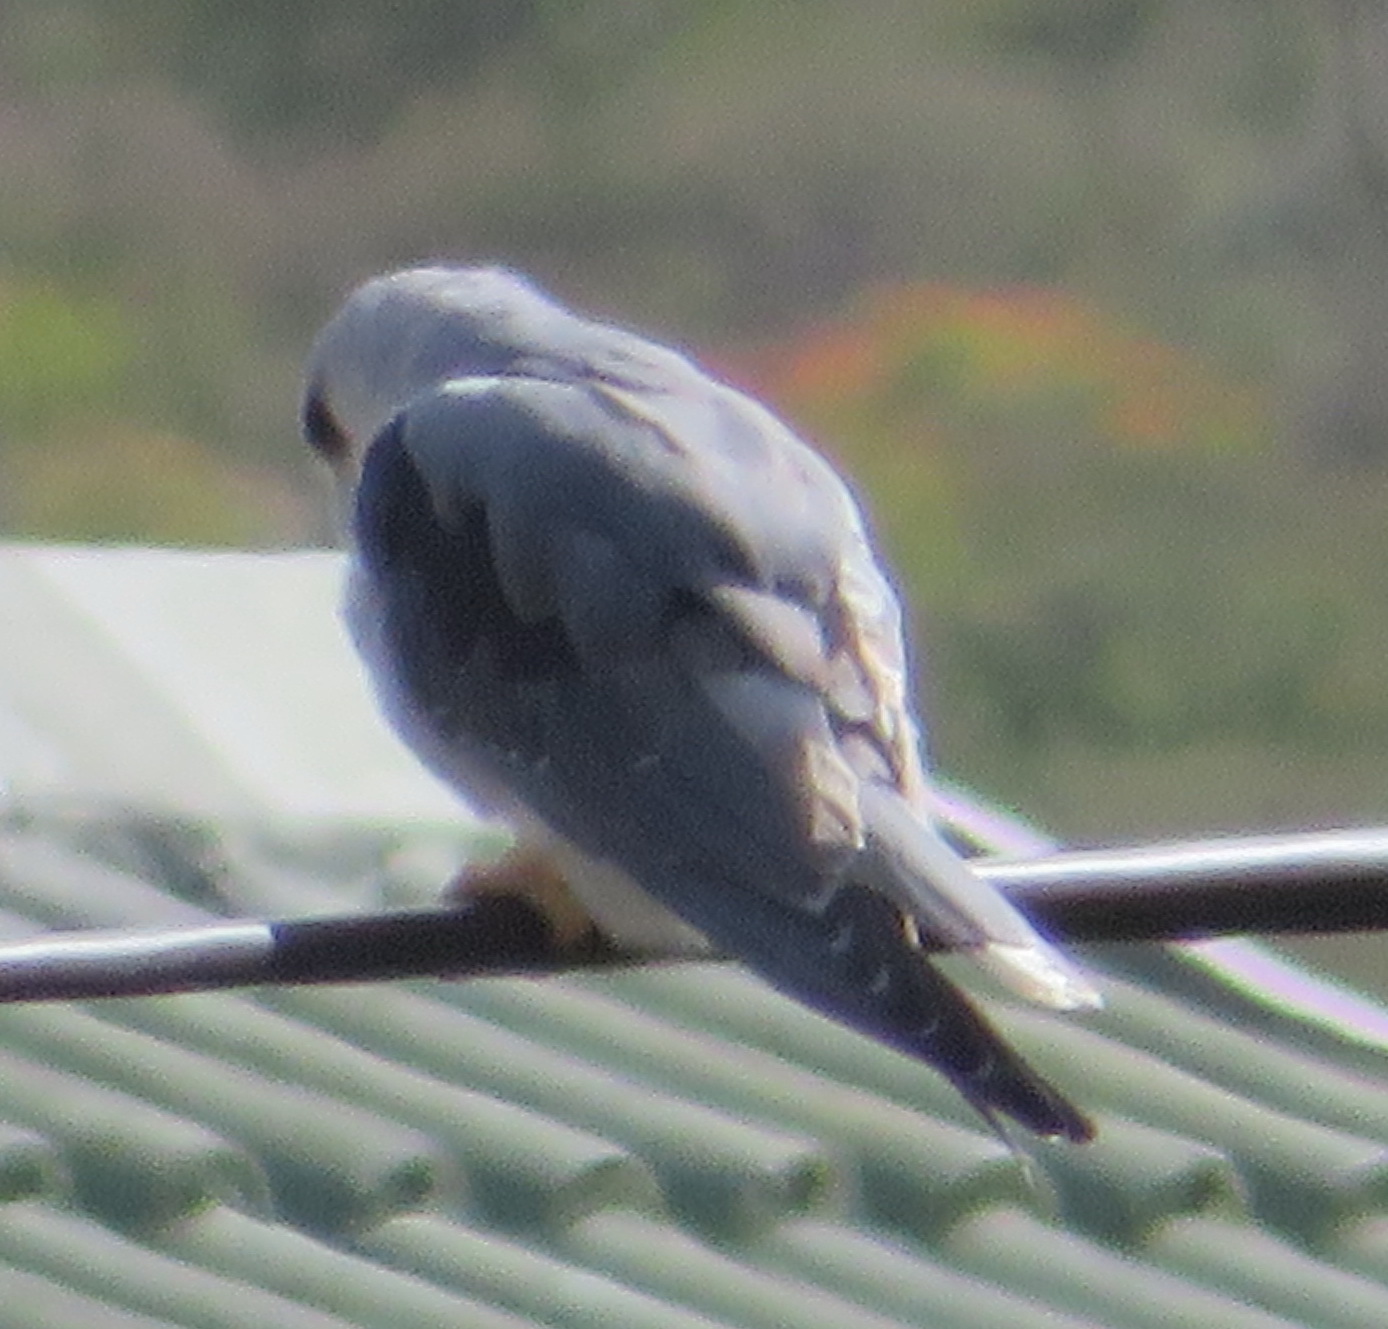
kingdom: Animalia
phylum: Chordata
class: Aves
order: Accipitriformes
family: Accipitridae
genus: Elanus
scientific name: Elanus caeruleus
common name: Black-winged kite
